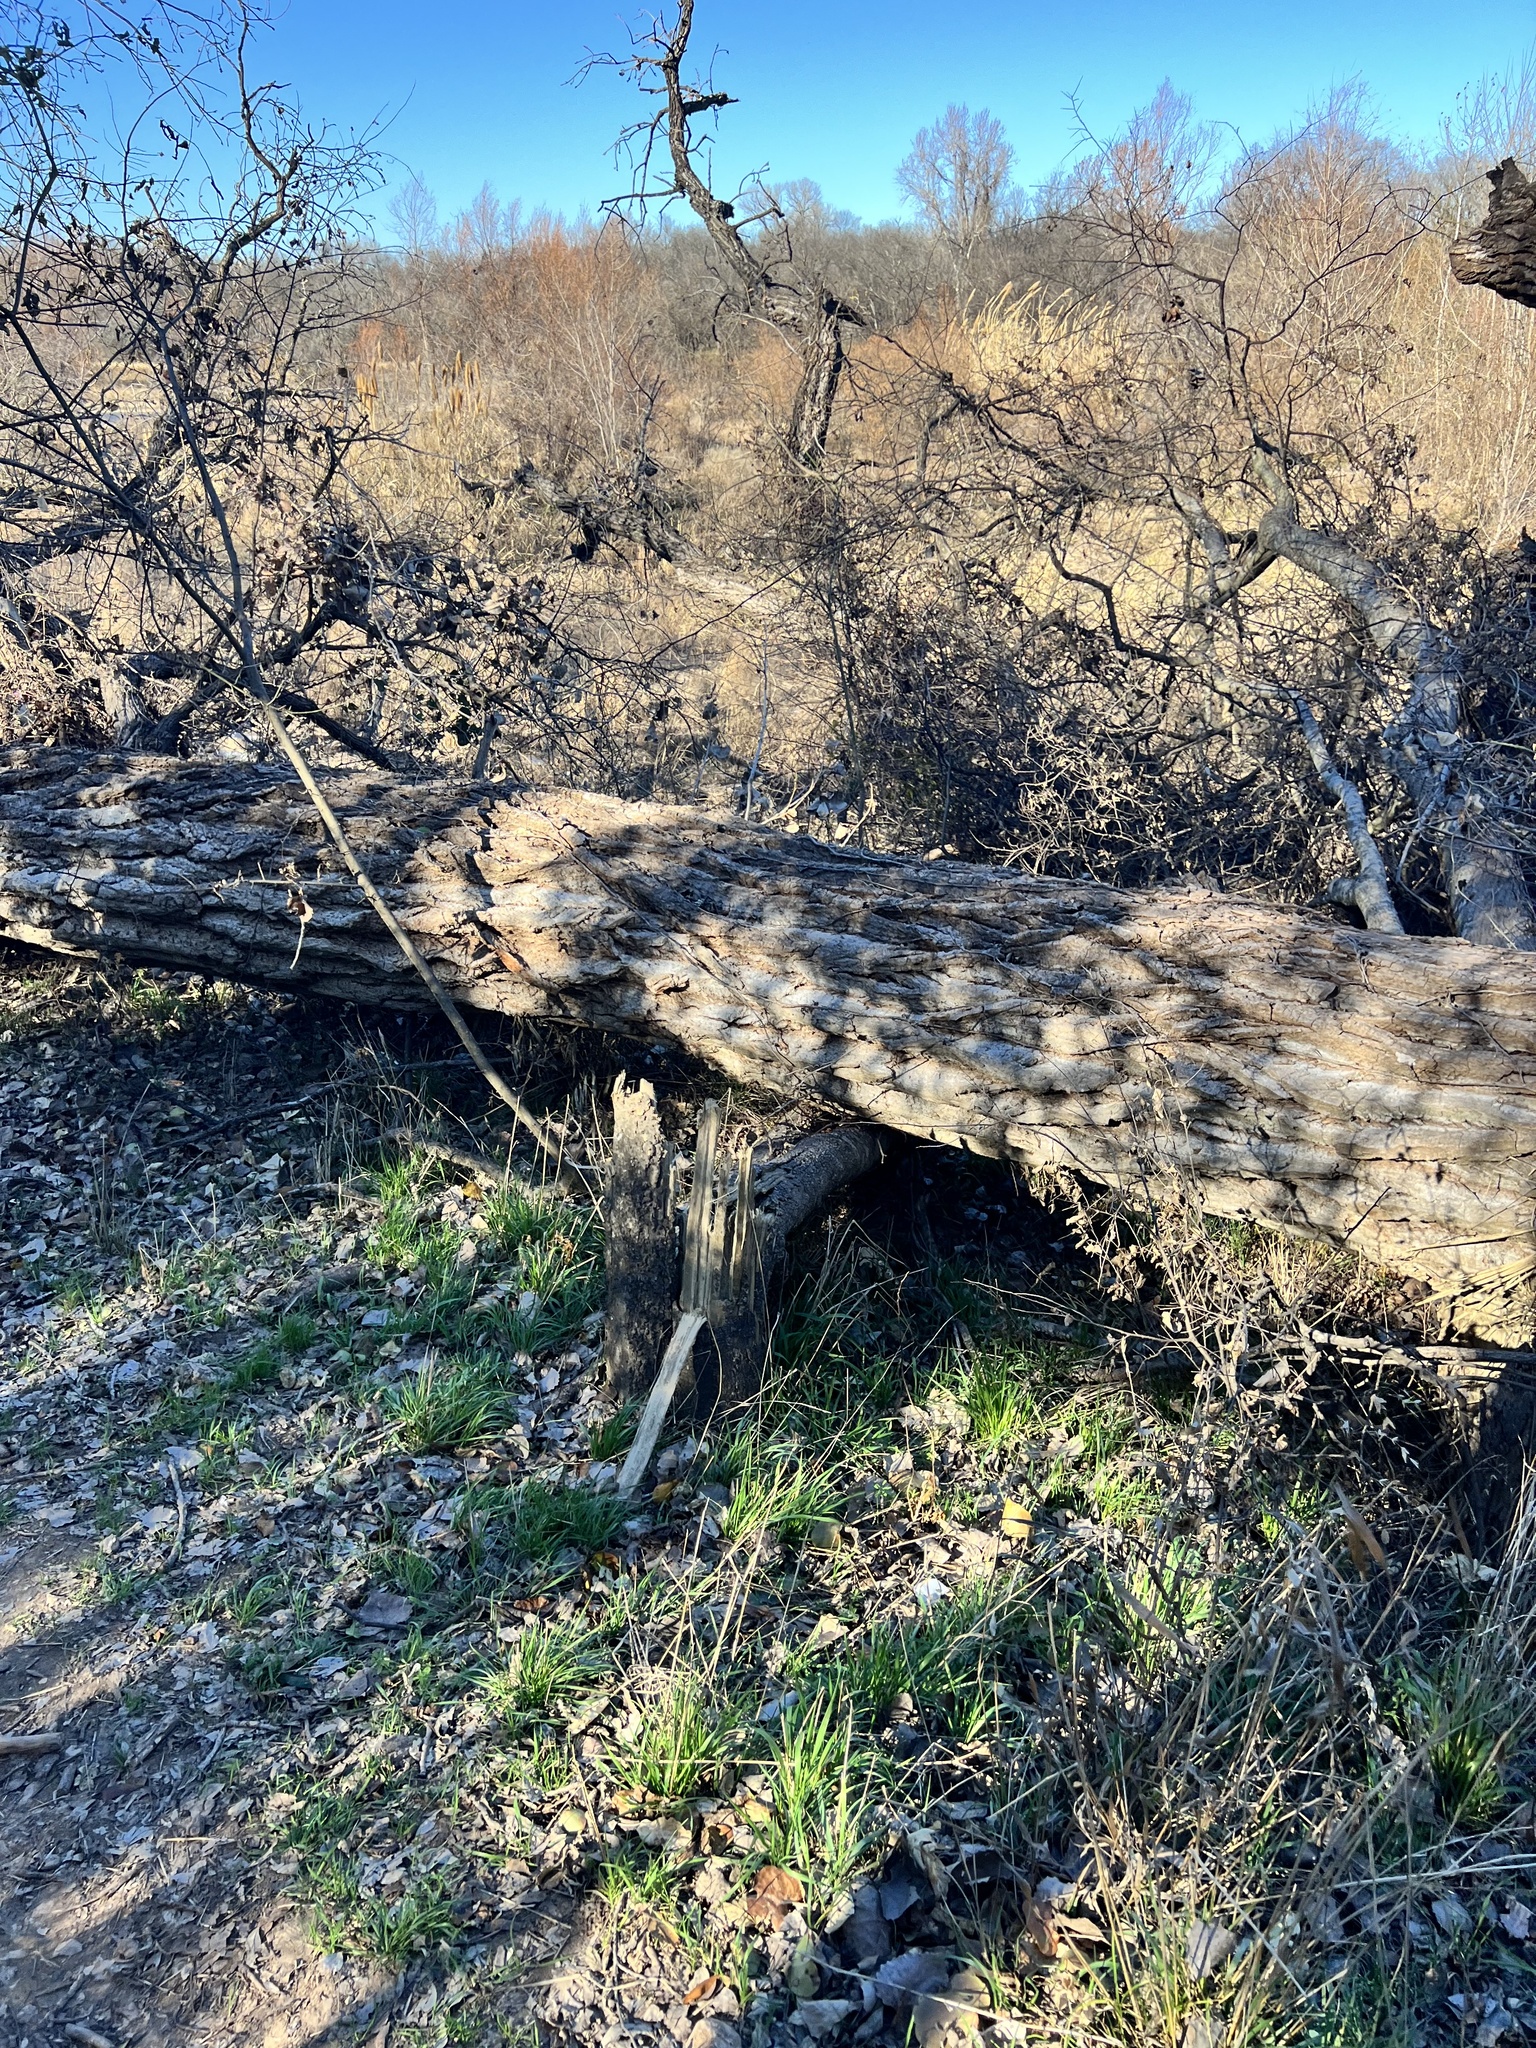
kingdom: Plantae
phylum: Tracheophyta
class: Magnoliopsida
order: Malpighiales
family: Salicaceae
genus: Populus
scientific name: Populus deltoides
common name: Eastern cottonwood
